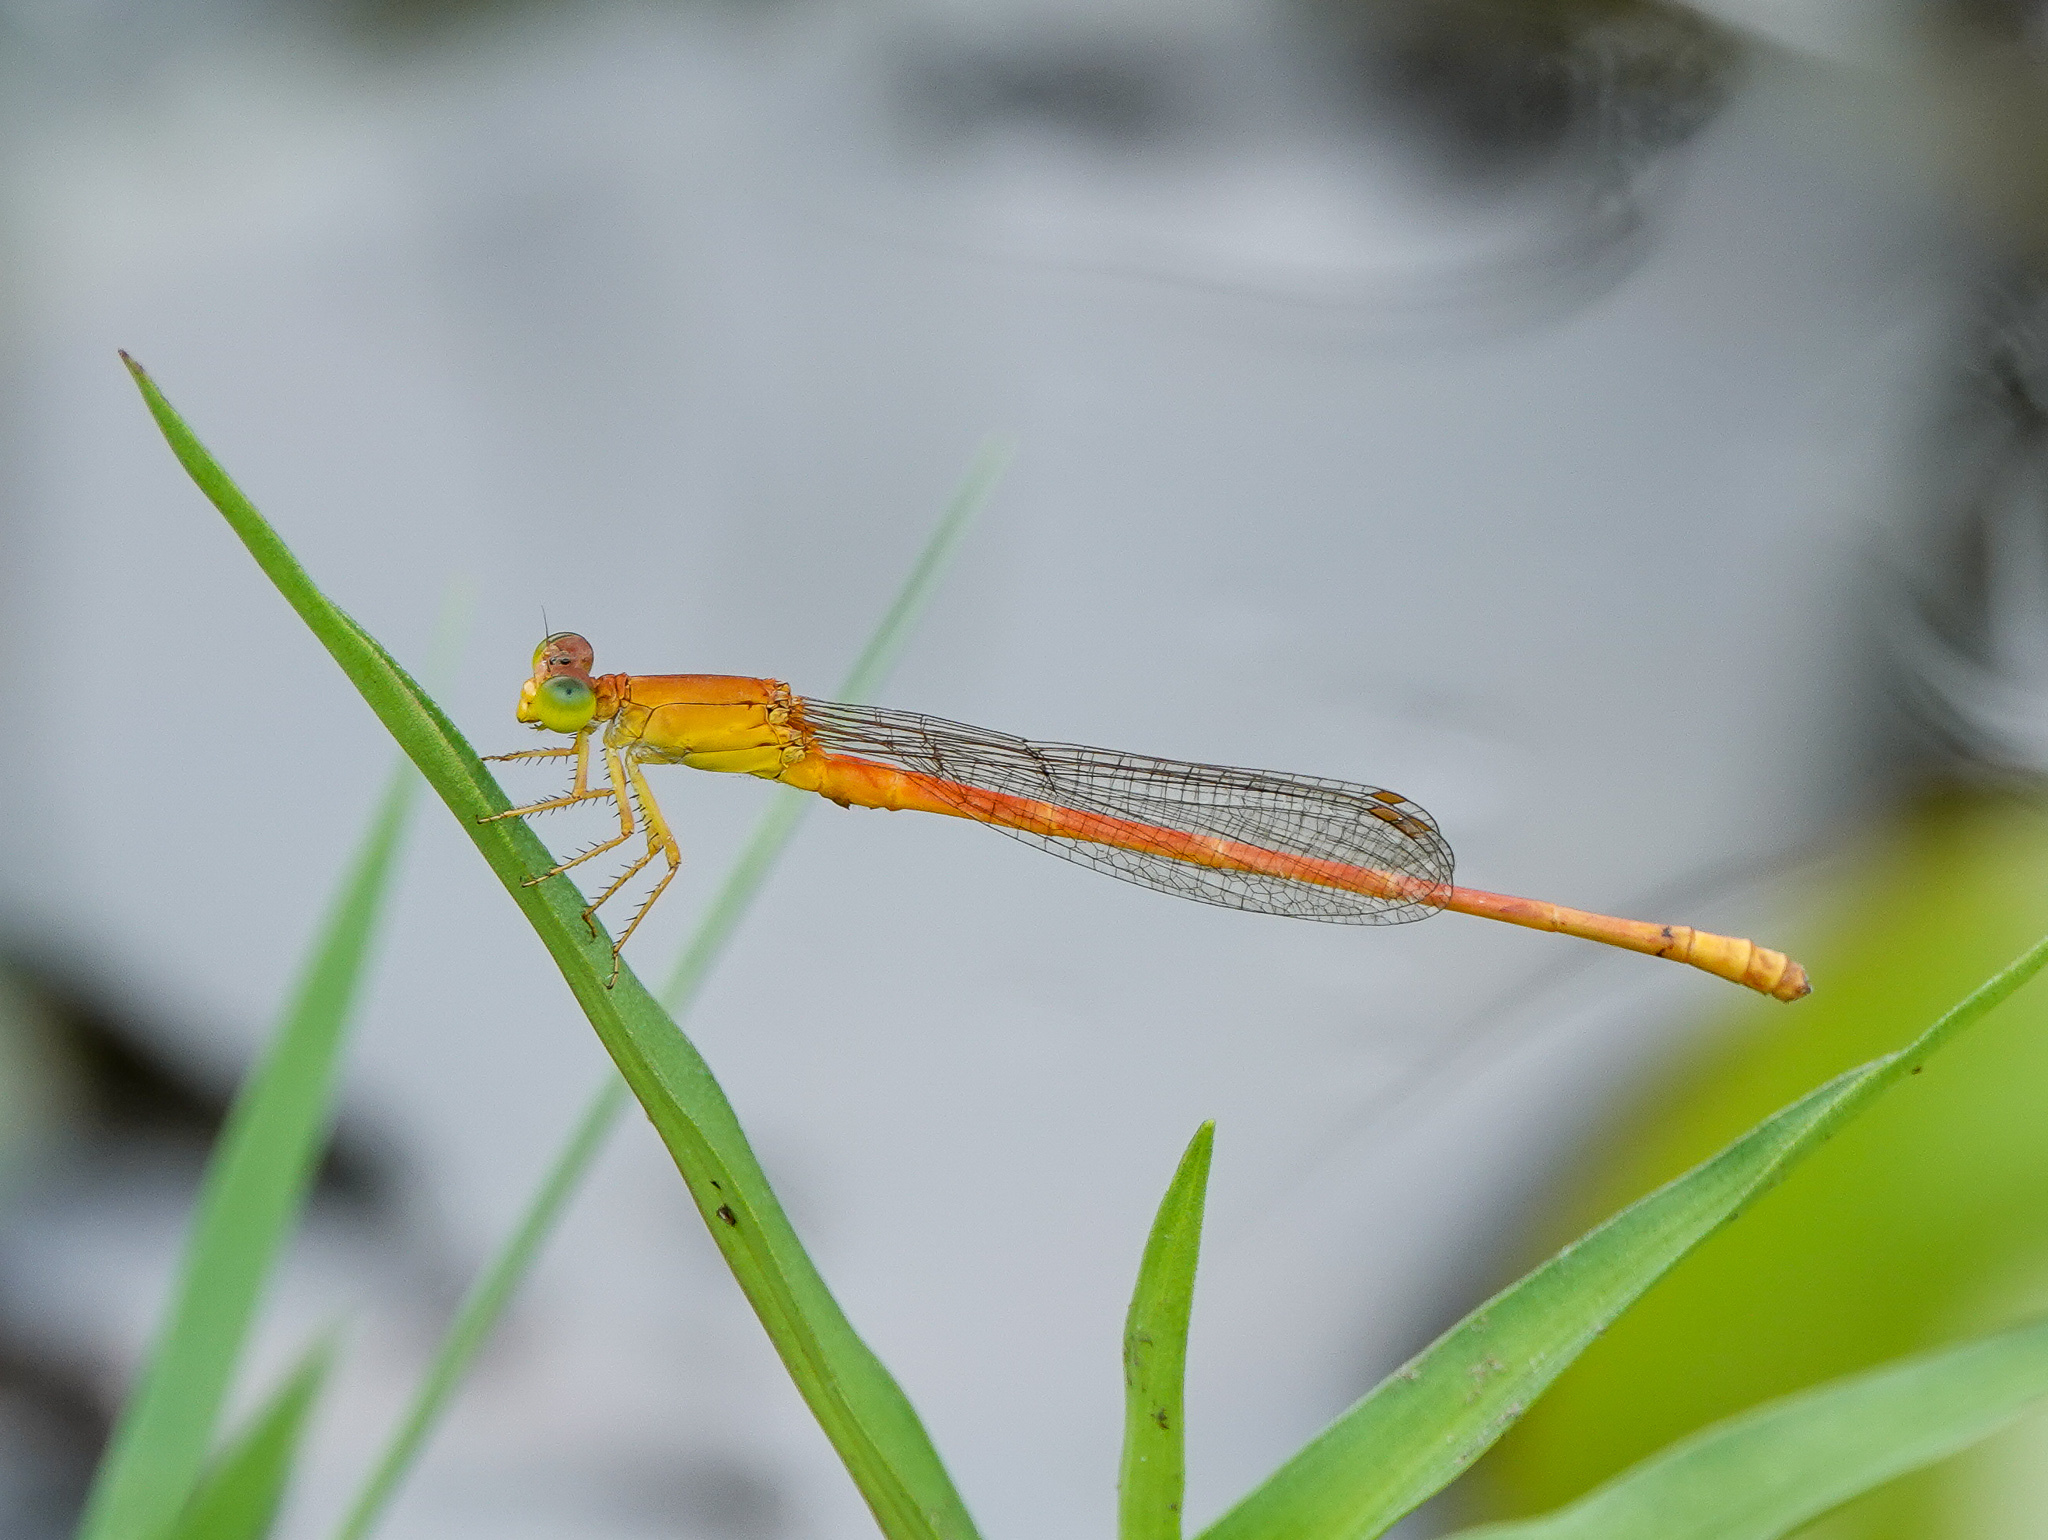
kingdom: Animalia
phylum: Arthropoda
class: Insecta
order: Odonata
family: Coenagrionidae
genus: Ceriagrion
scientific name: Ceriagrion rubiae
